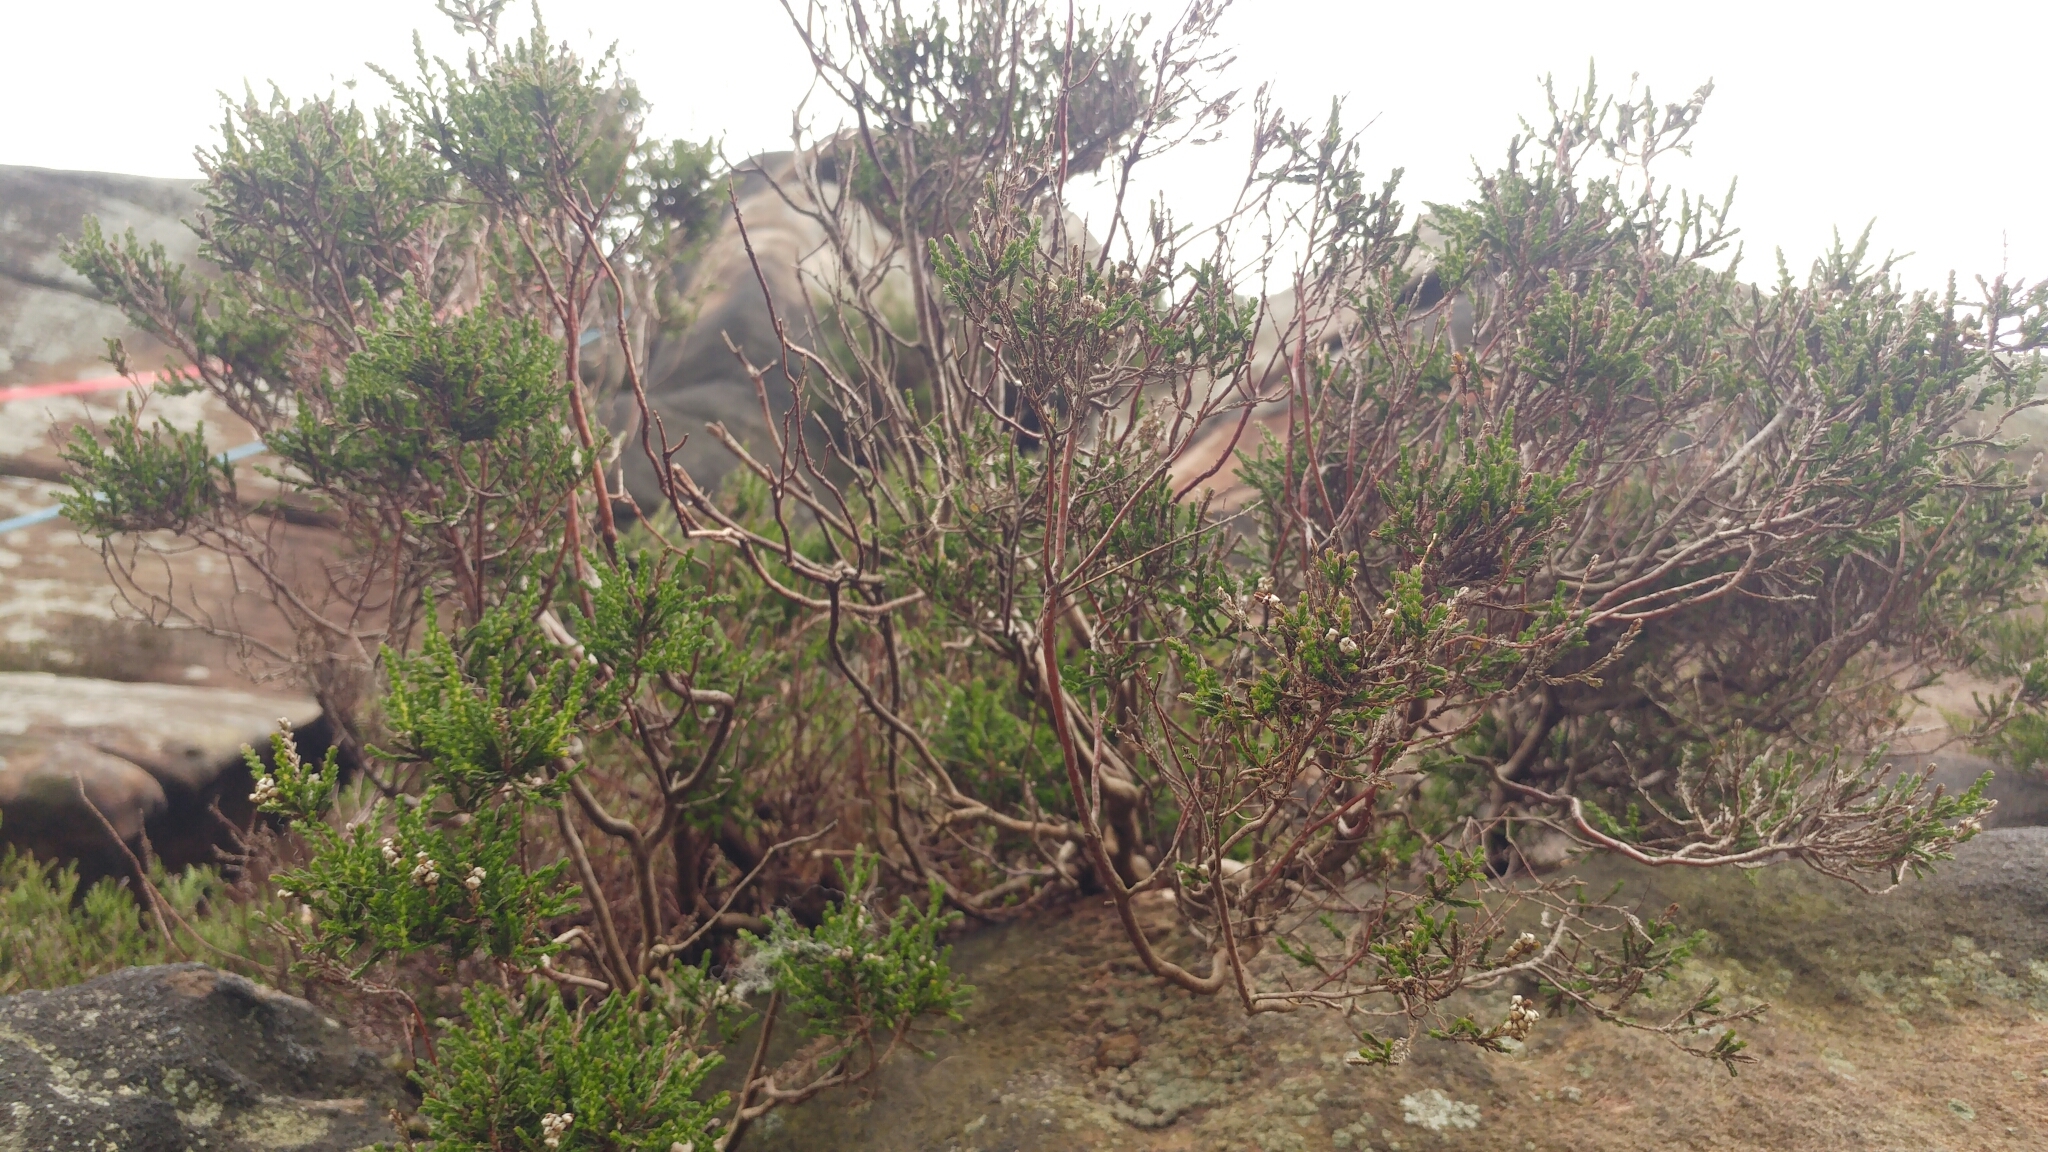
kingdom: Plantae
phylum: Tracheophyta
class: Magnoliopsida
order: Ericales
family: Ericaceae
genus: Calluna
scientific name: Calluna vulgaris
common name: Heather
